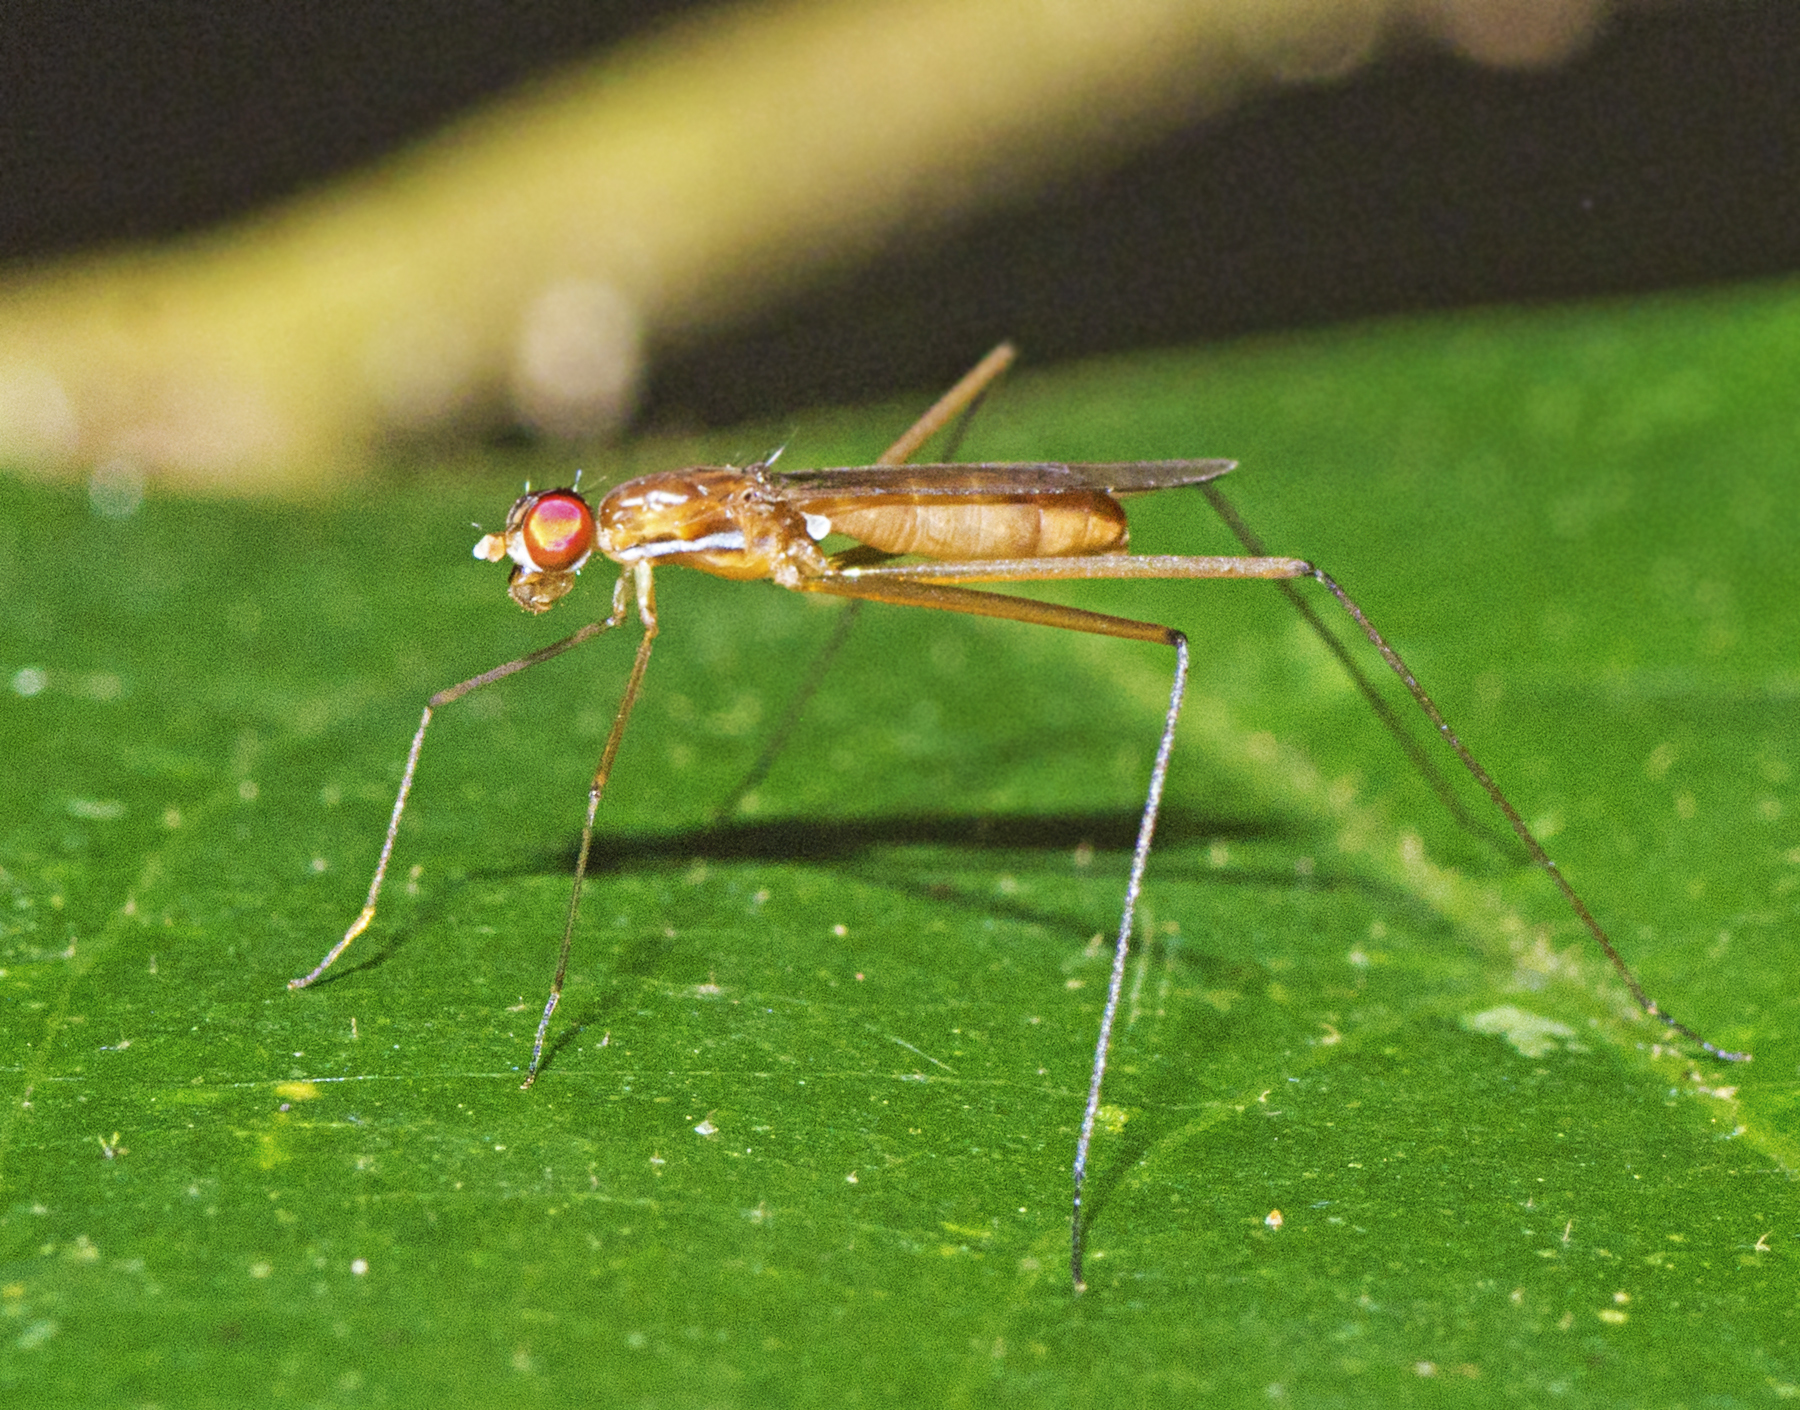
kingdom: Animalia
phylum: Arthropoda
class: Insecta
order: Diptera
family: Micropezidae
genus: Cothornobata
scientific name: Cothornobata aczeli
